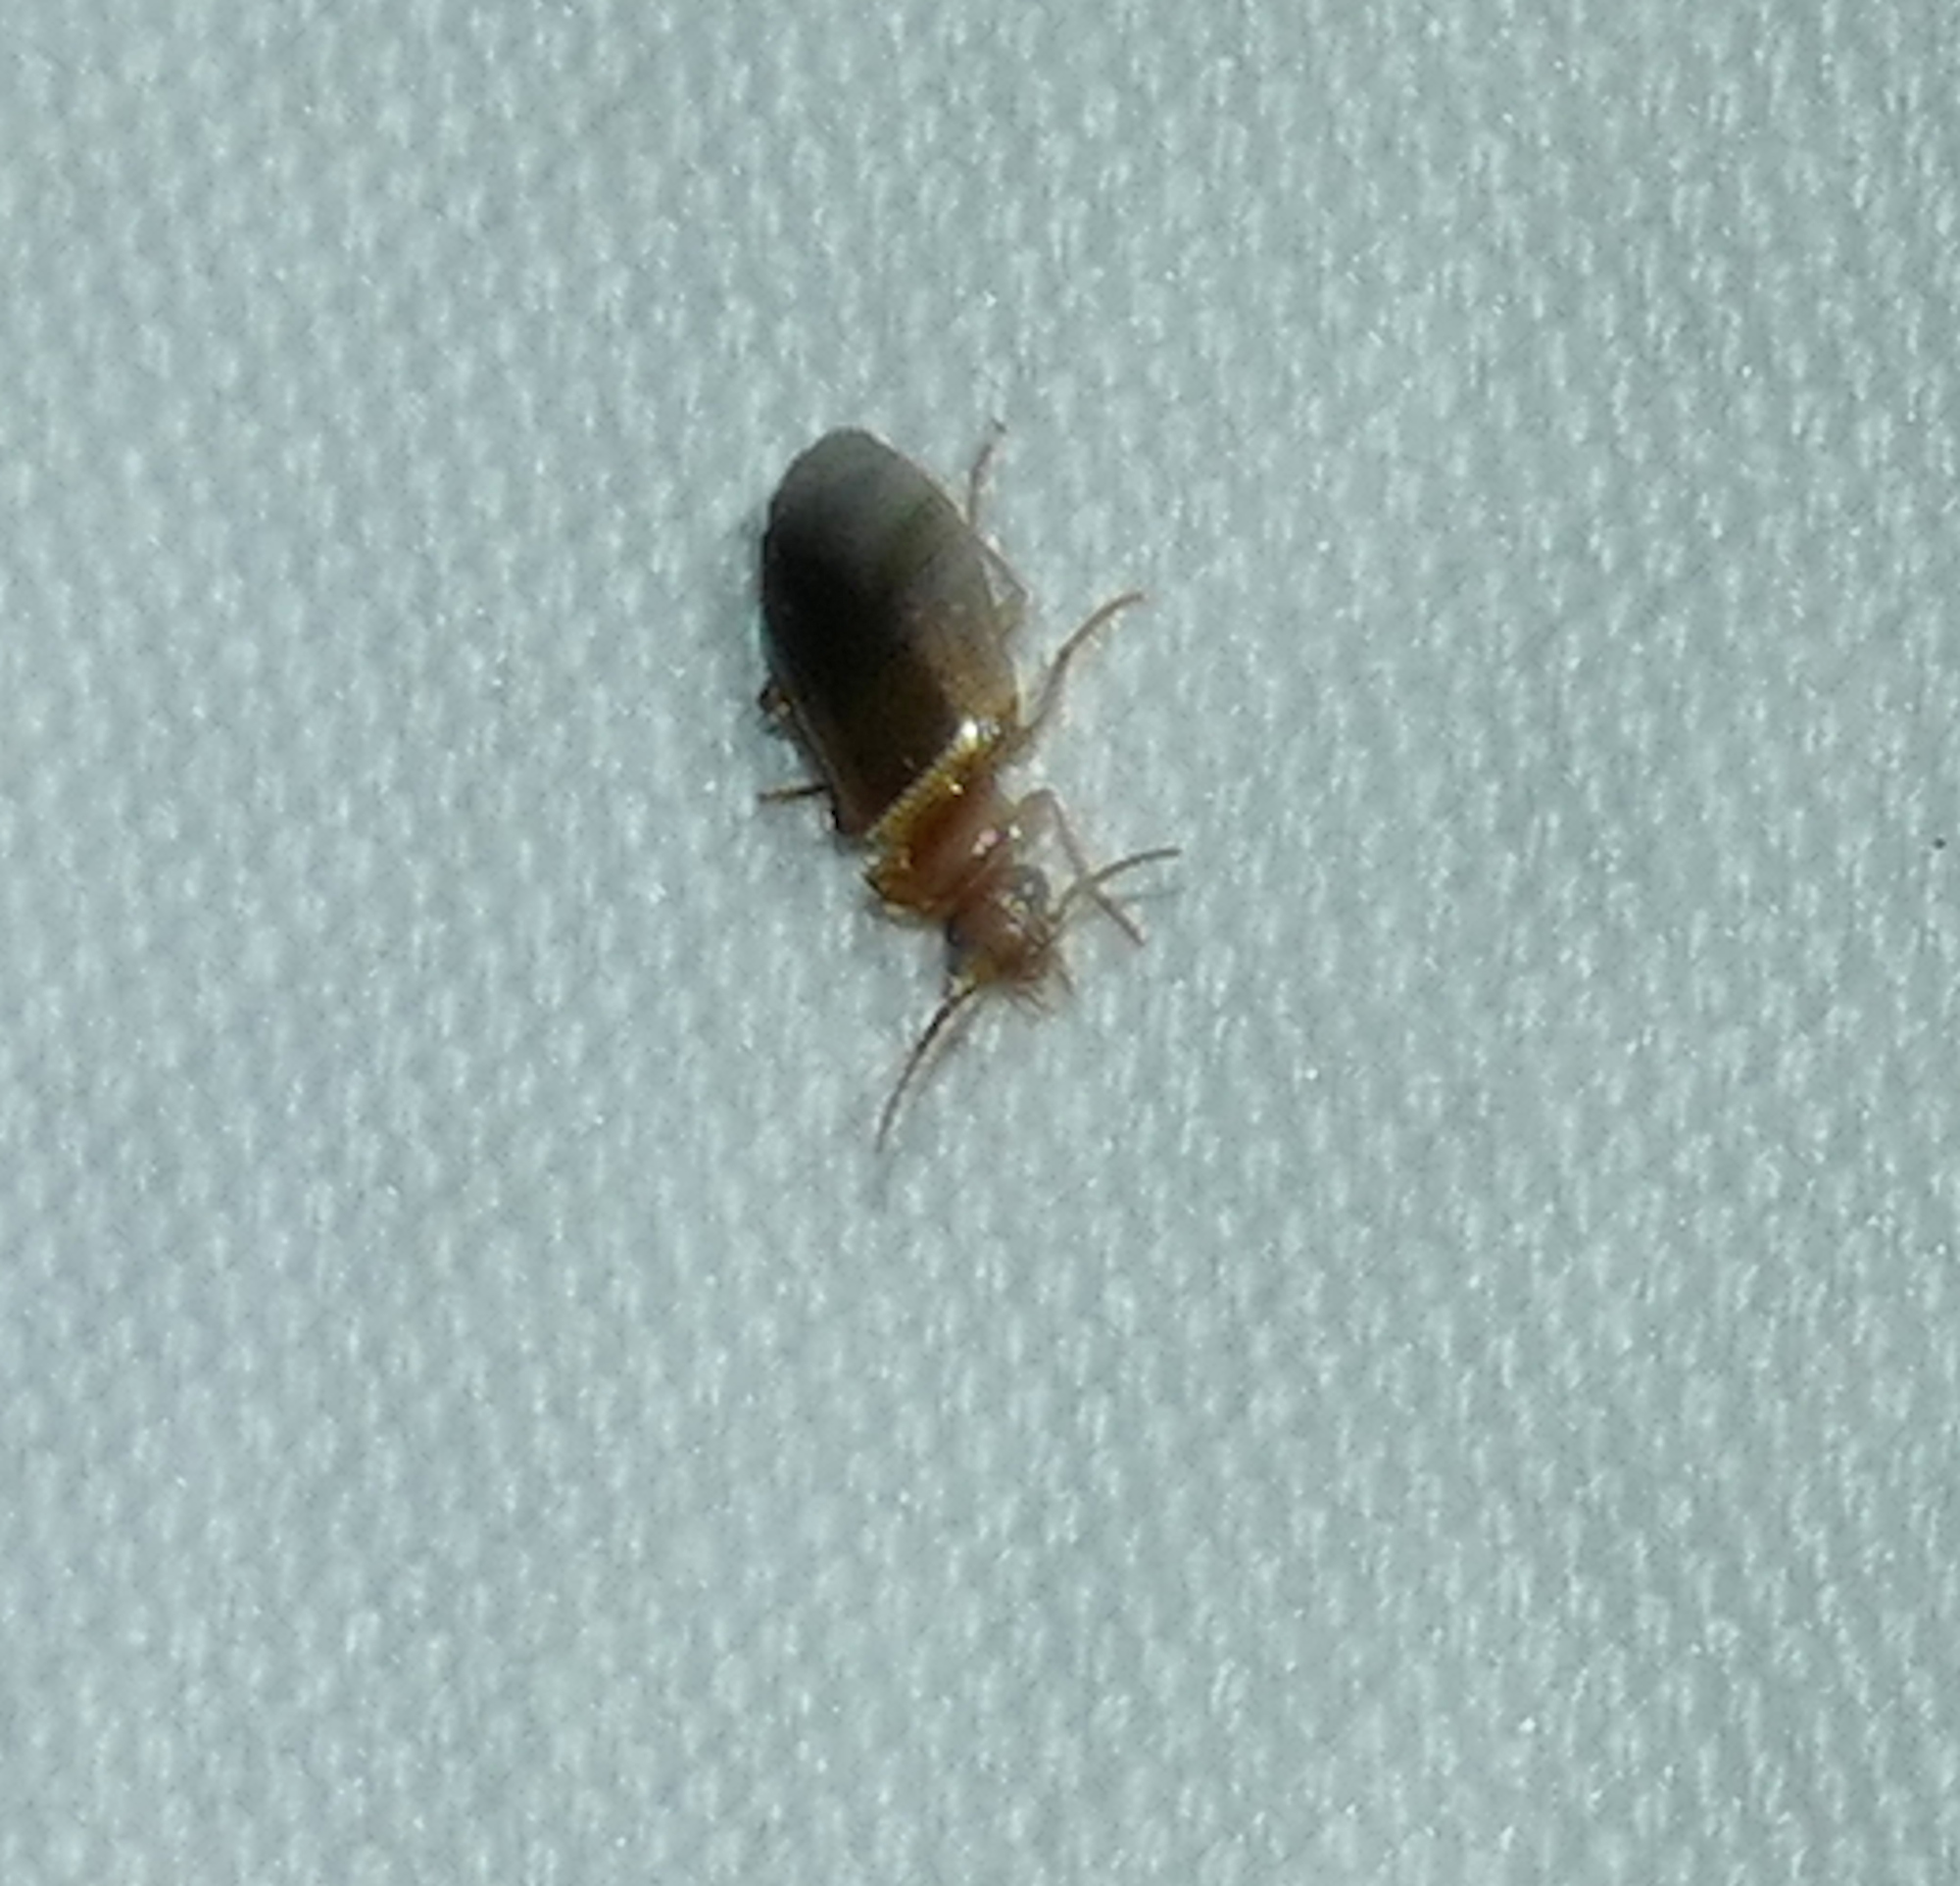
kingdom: Animalia
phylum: Arthropoda
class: Insecta
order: Coleoptera
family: Carabidae
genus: Lebia
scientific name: Lebia scapula
